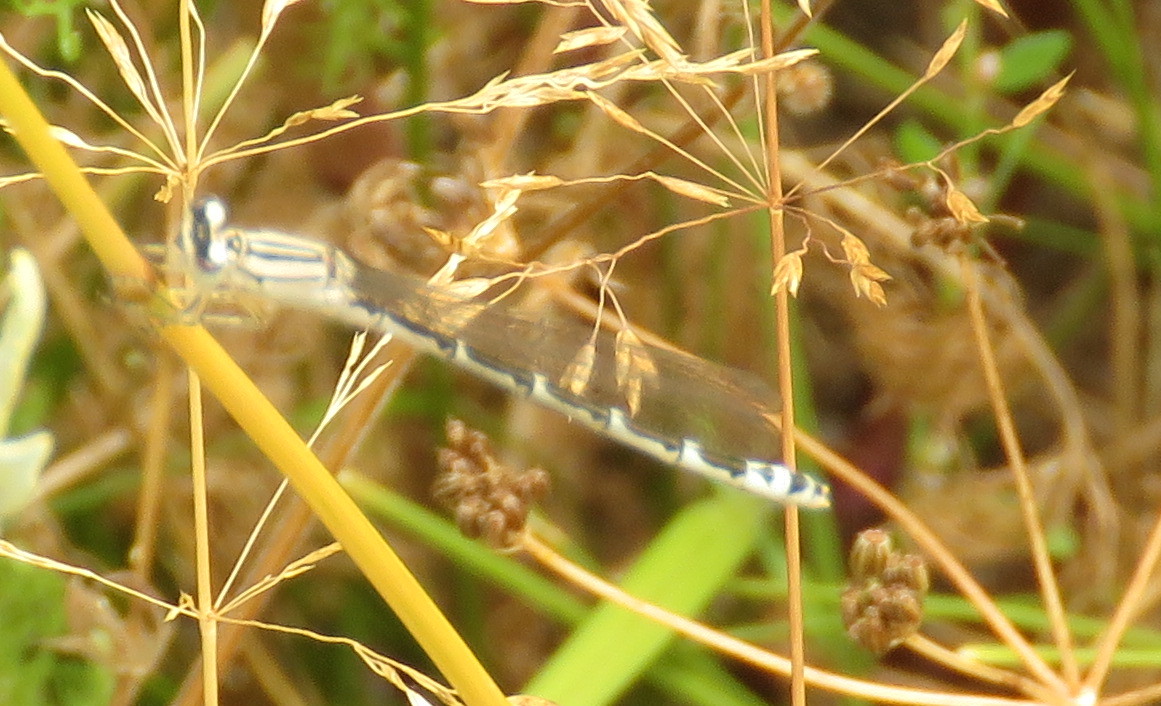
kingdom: Animalia
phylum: Arthropoda
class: Insecta
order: Odonata
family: Coenagrionidae
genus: Enallagma
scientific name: Enallagma cyathigerum
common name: Common blue damselfly
